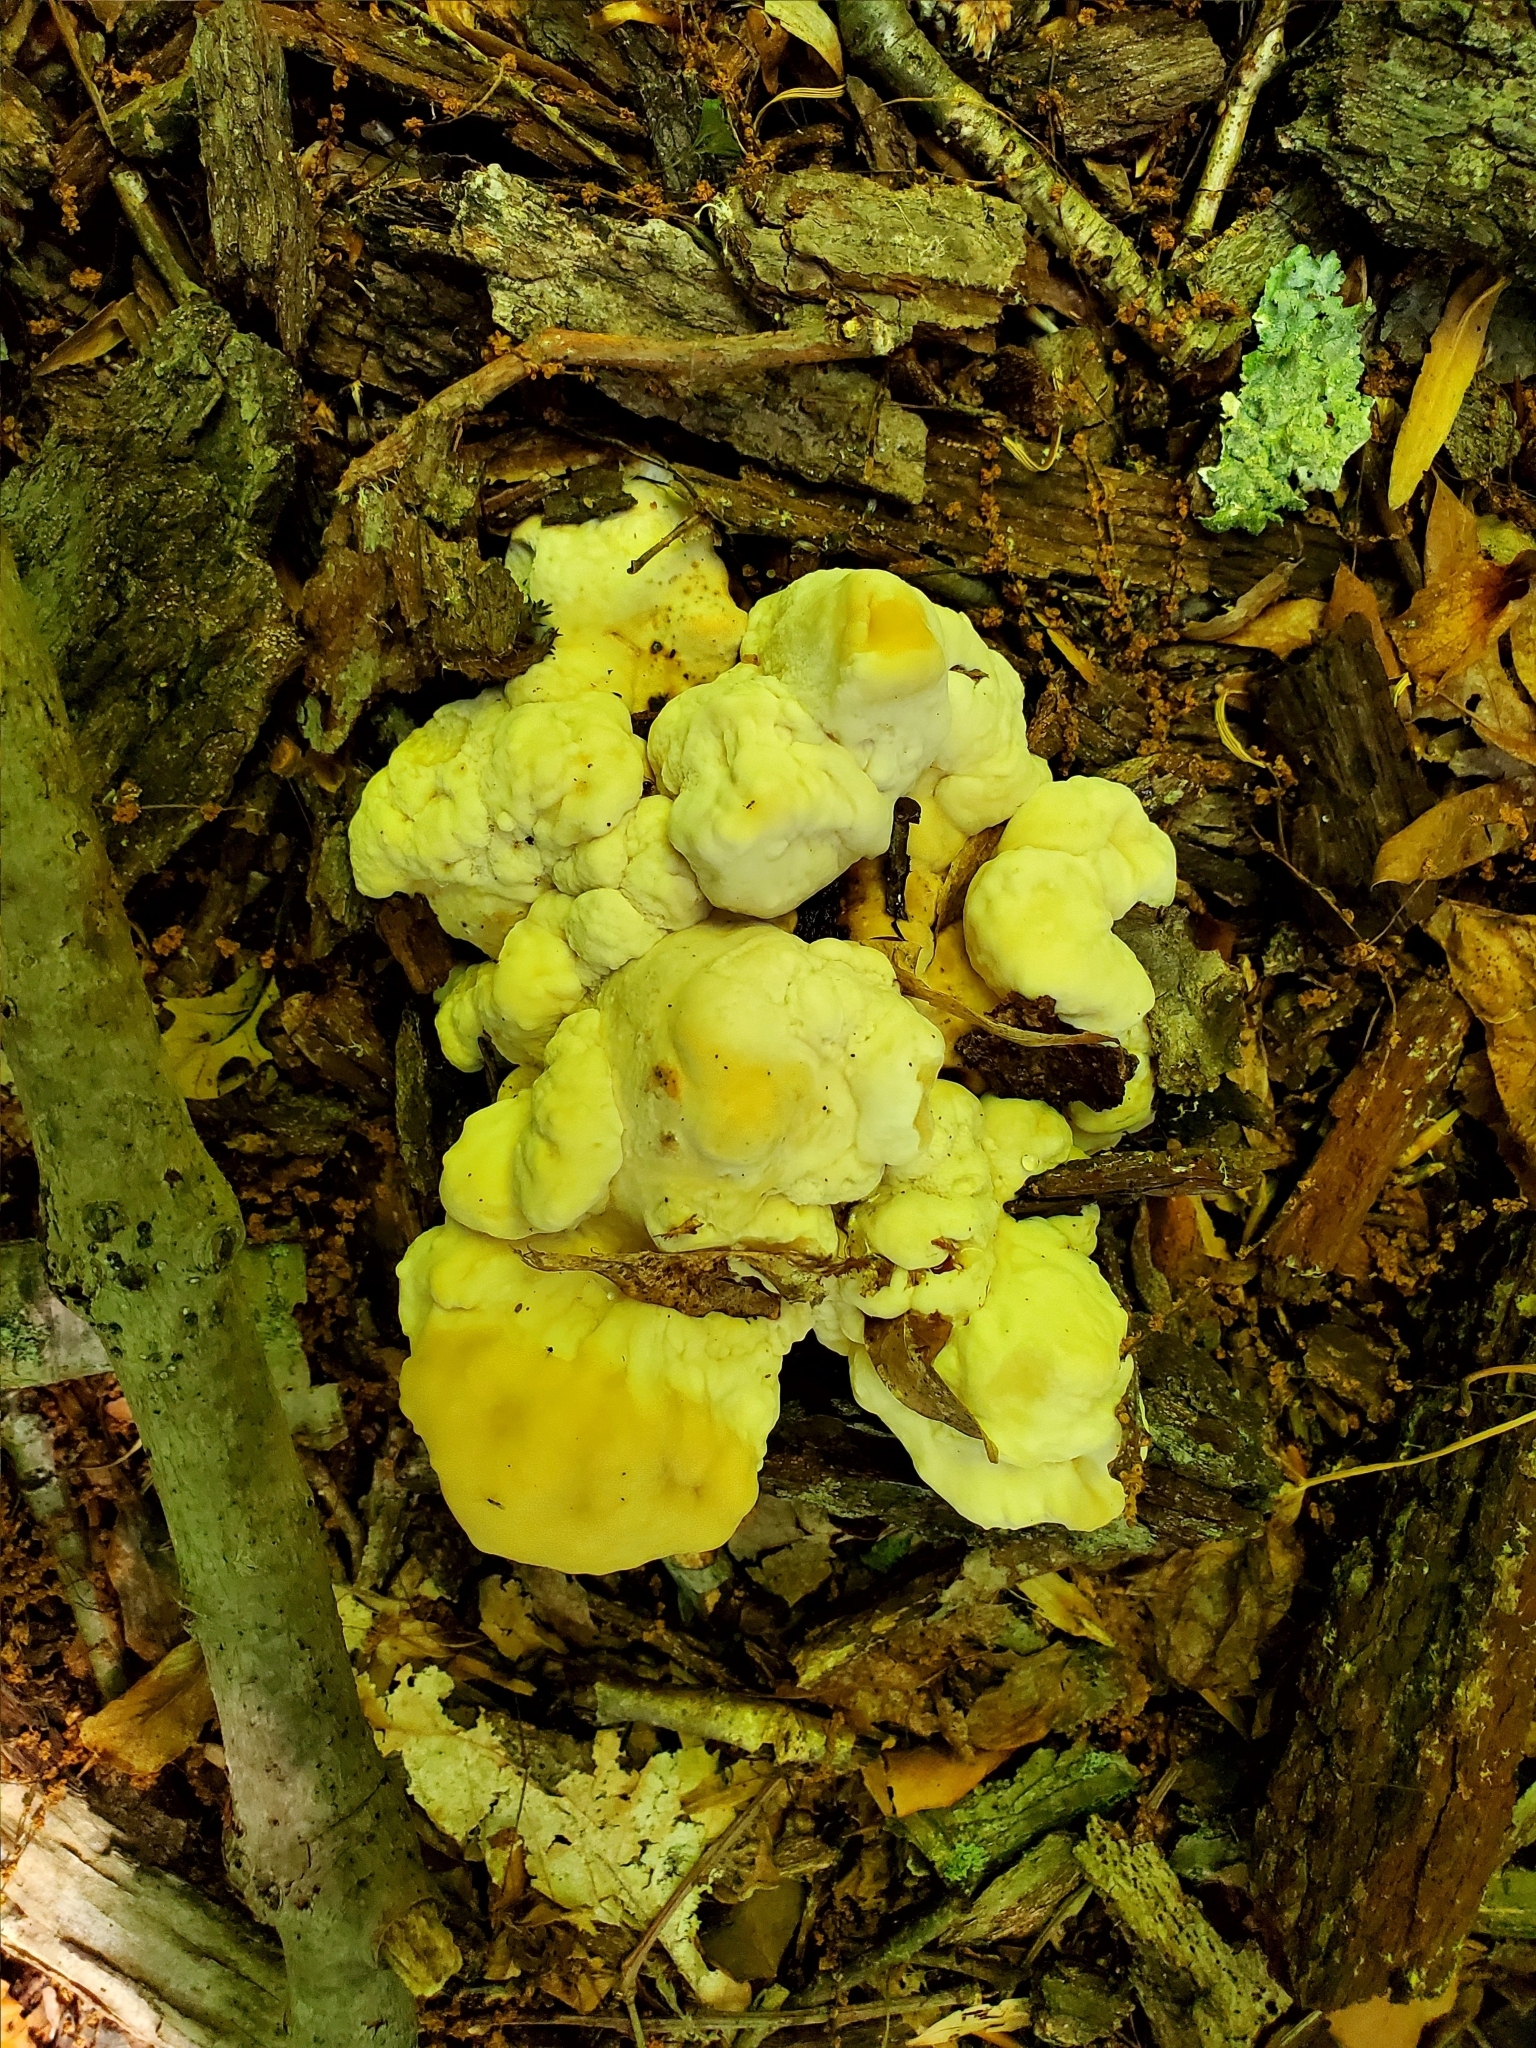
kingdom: Fungi
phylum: Basidiomycota
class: Agaricomycetes
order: Russulales
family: Bondarzewiaceae
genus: Bondarzewia
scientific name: Bondarzewia berkeleyi
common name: Berkeley's polypore
